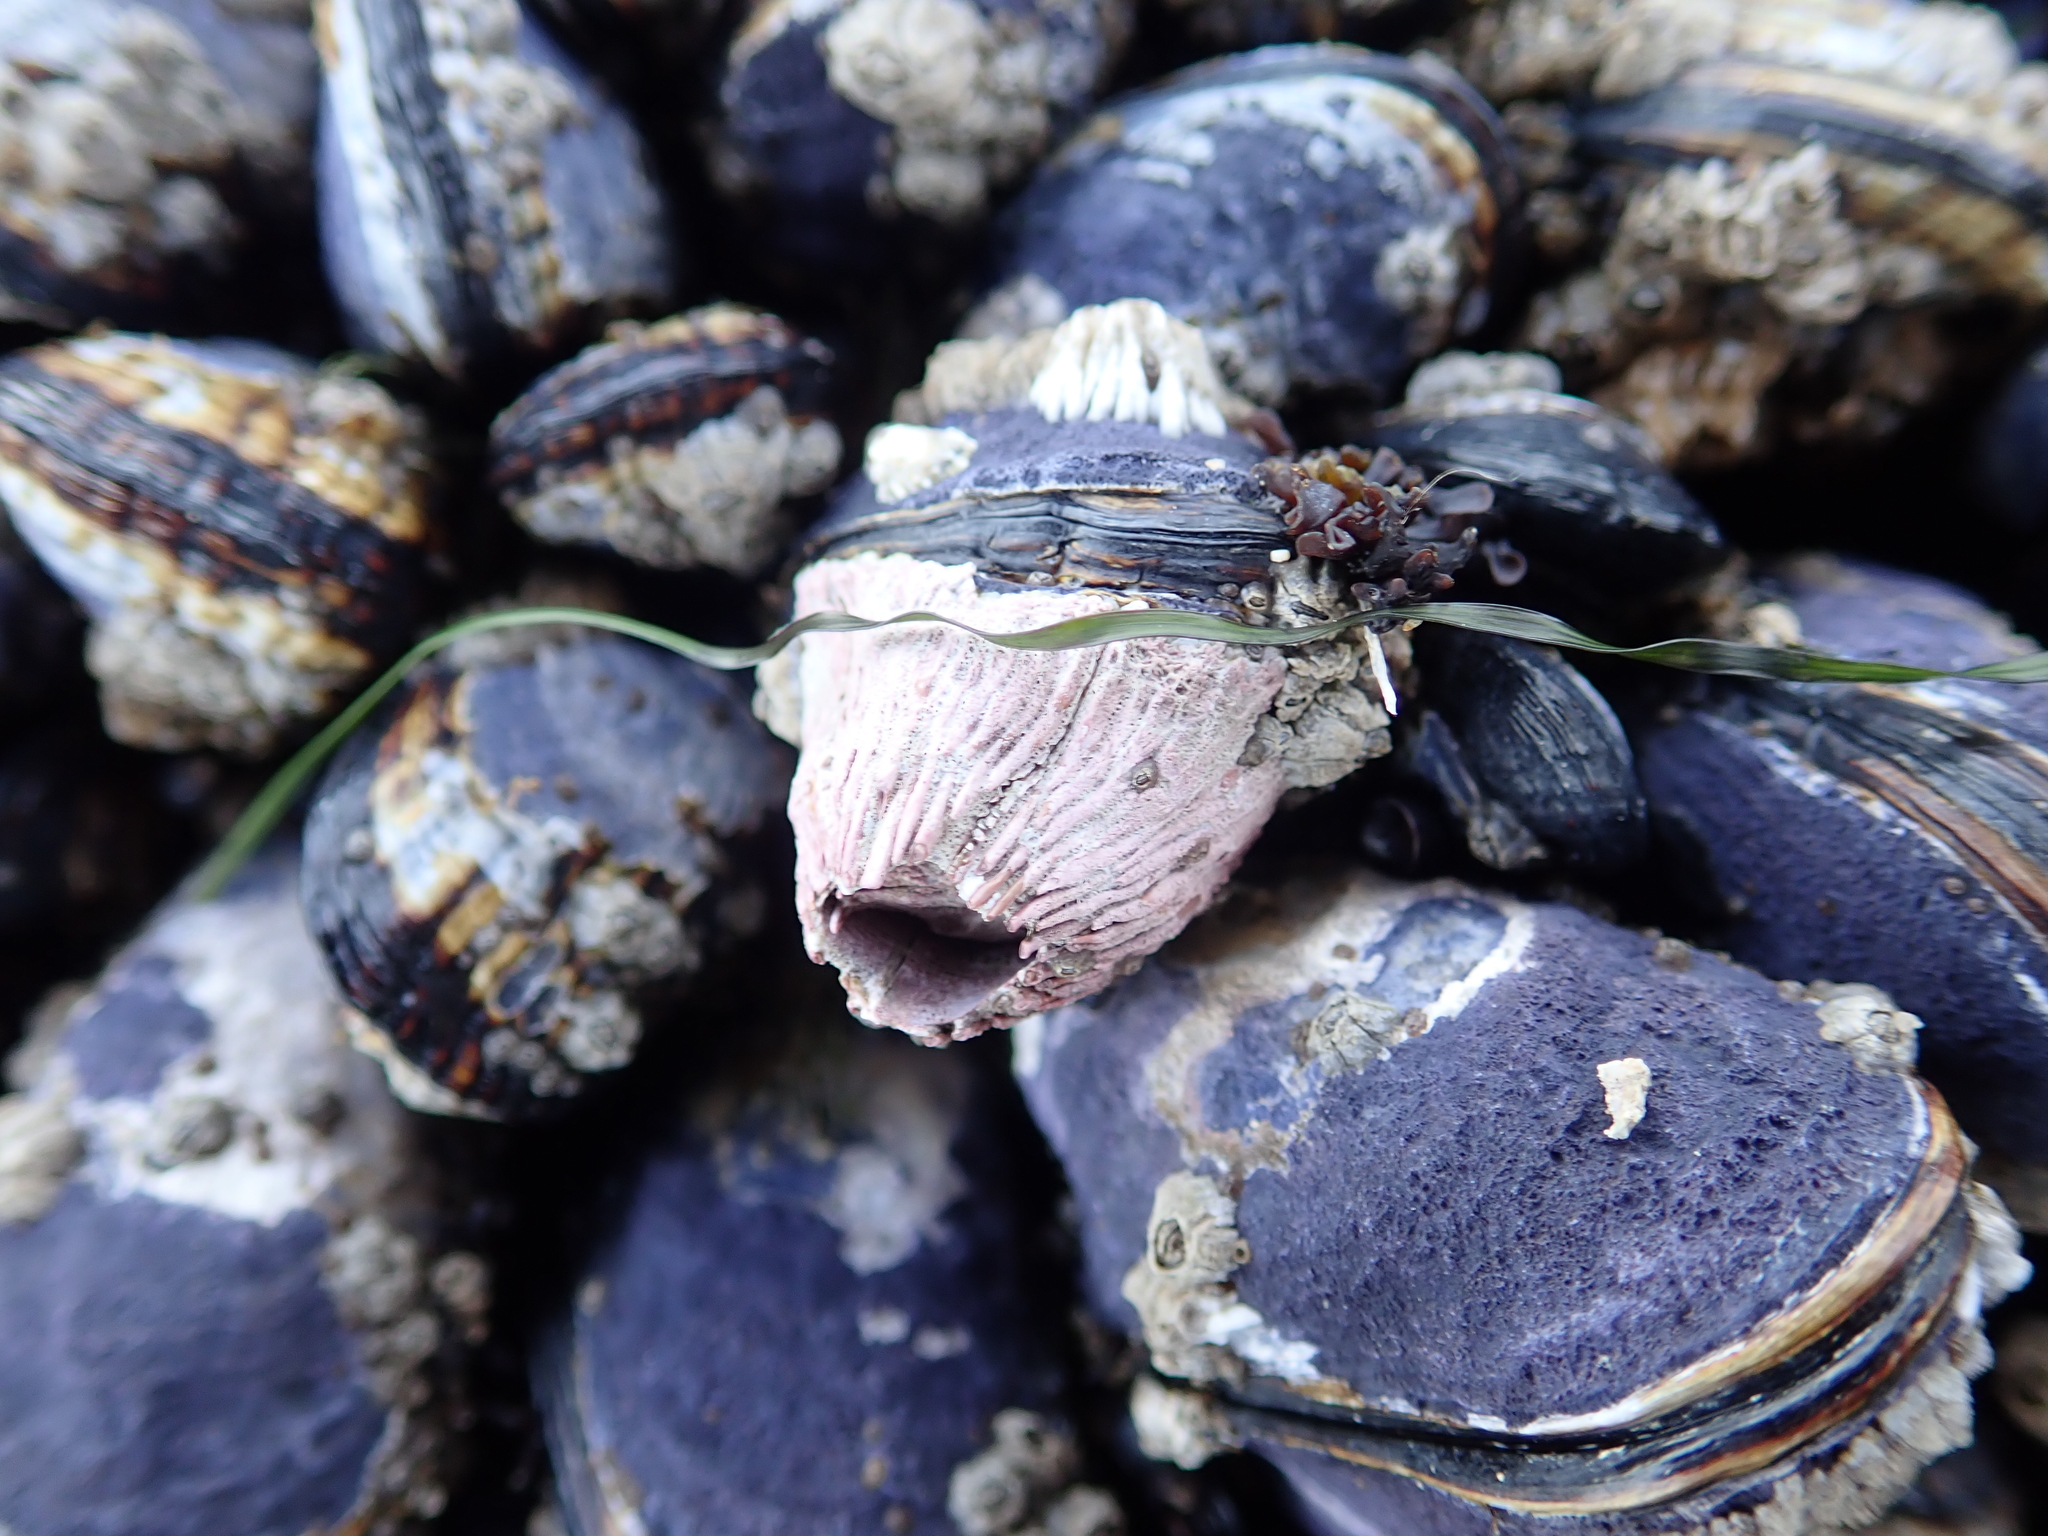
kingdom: Animalia
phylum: Arthropoda
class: Maxillopoda
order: Sessilia
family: Tetraclitidae
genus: Tetraclita
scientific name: Tetraclita rubescens
